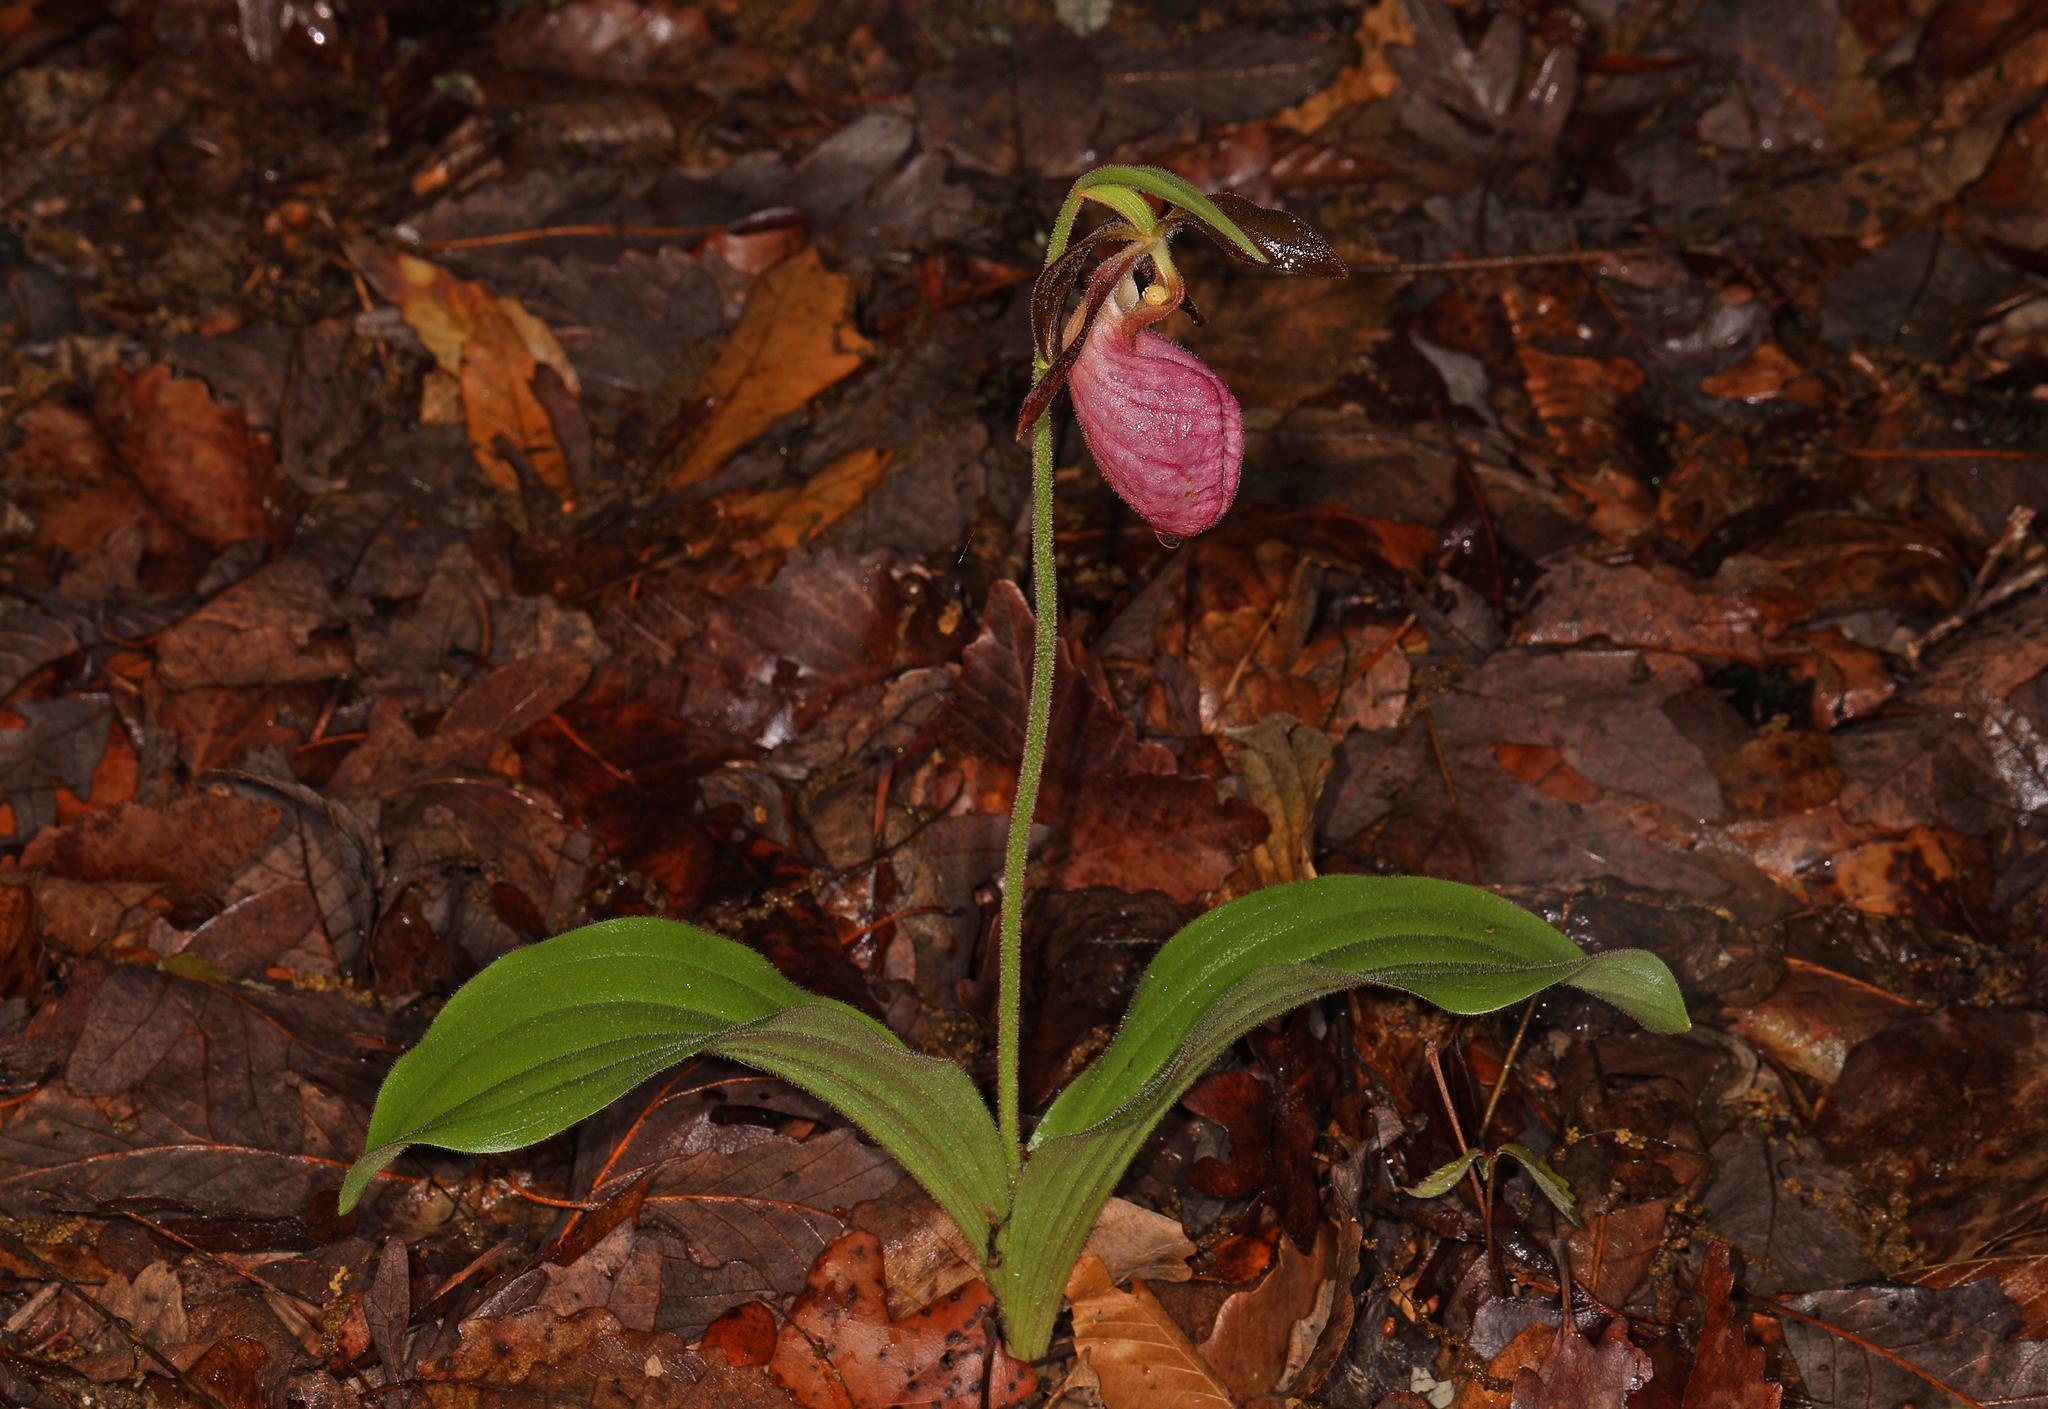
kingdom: Plantae
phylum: Tracheophyta
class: Liliopsida
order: Asparagales
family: Orchidaceae
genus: Cypripedium
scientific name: Cypripedium acaule
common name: Pink lady's-slipper
